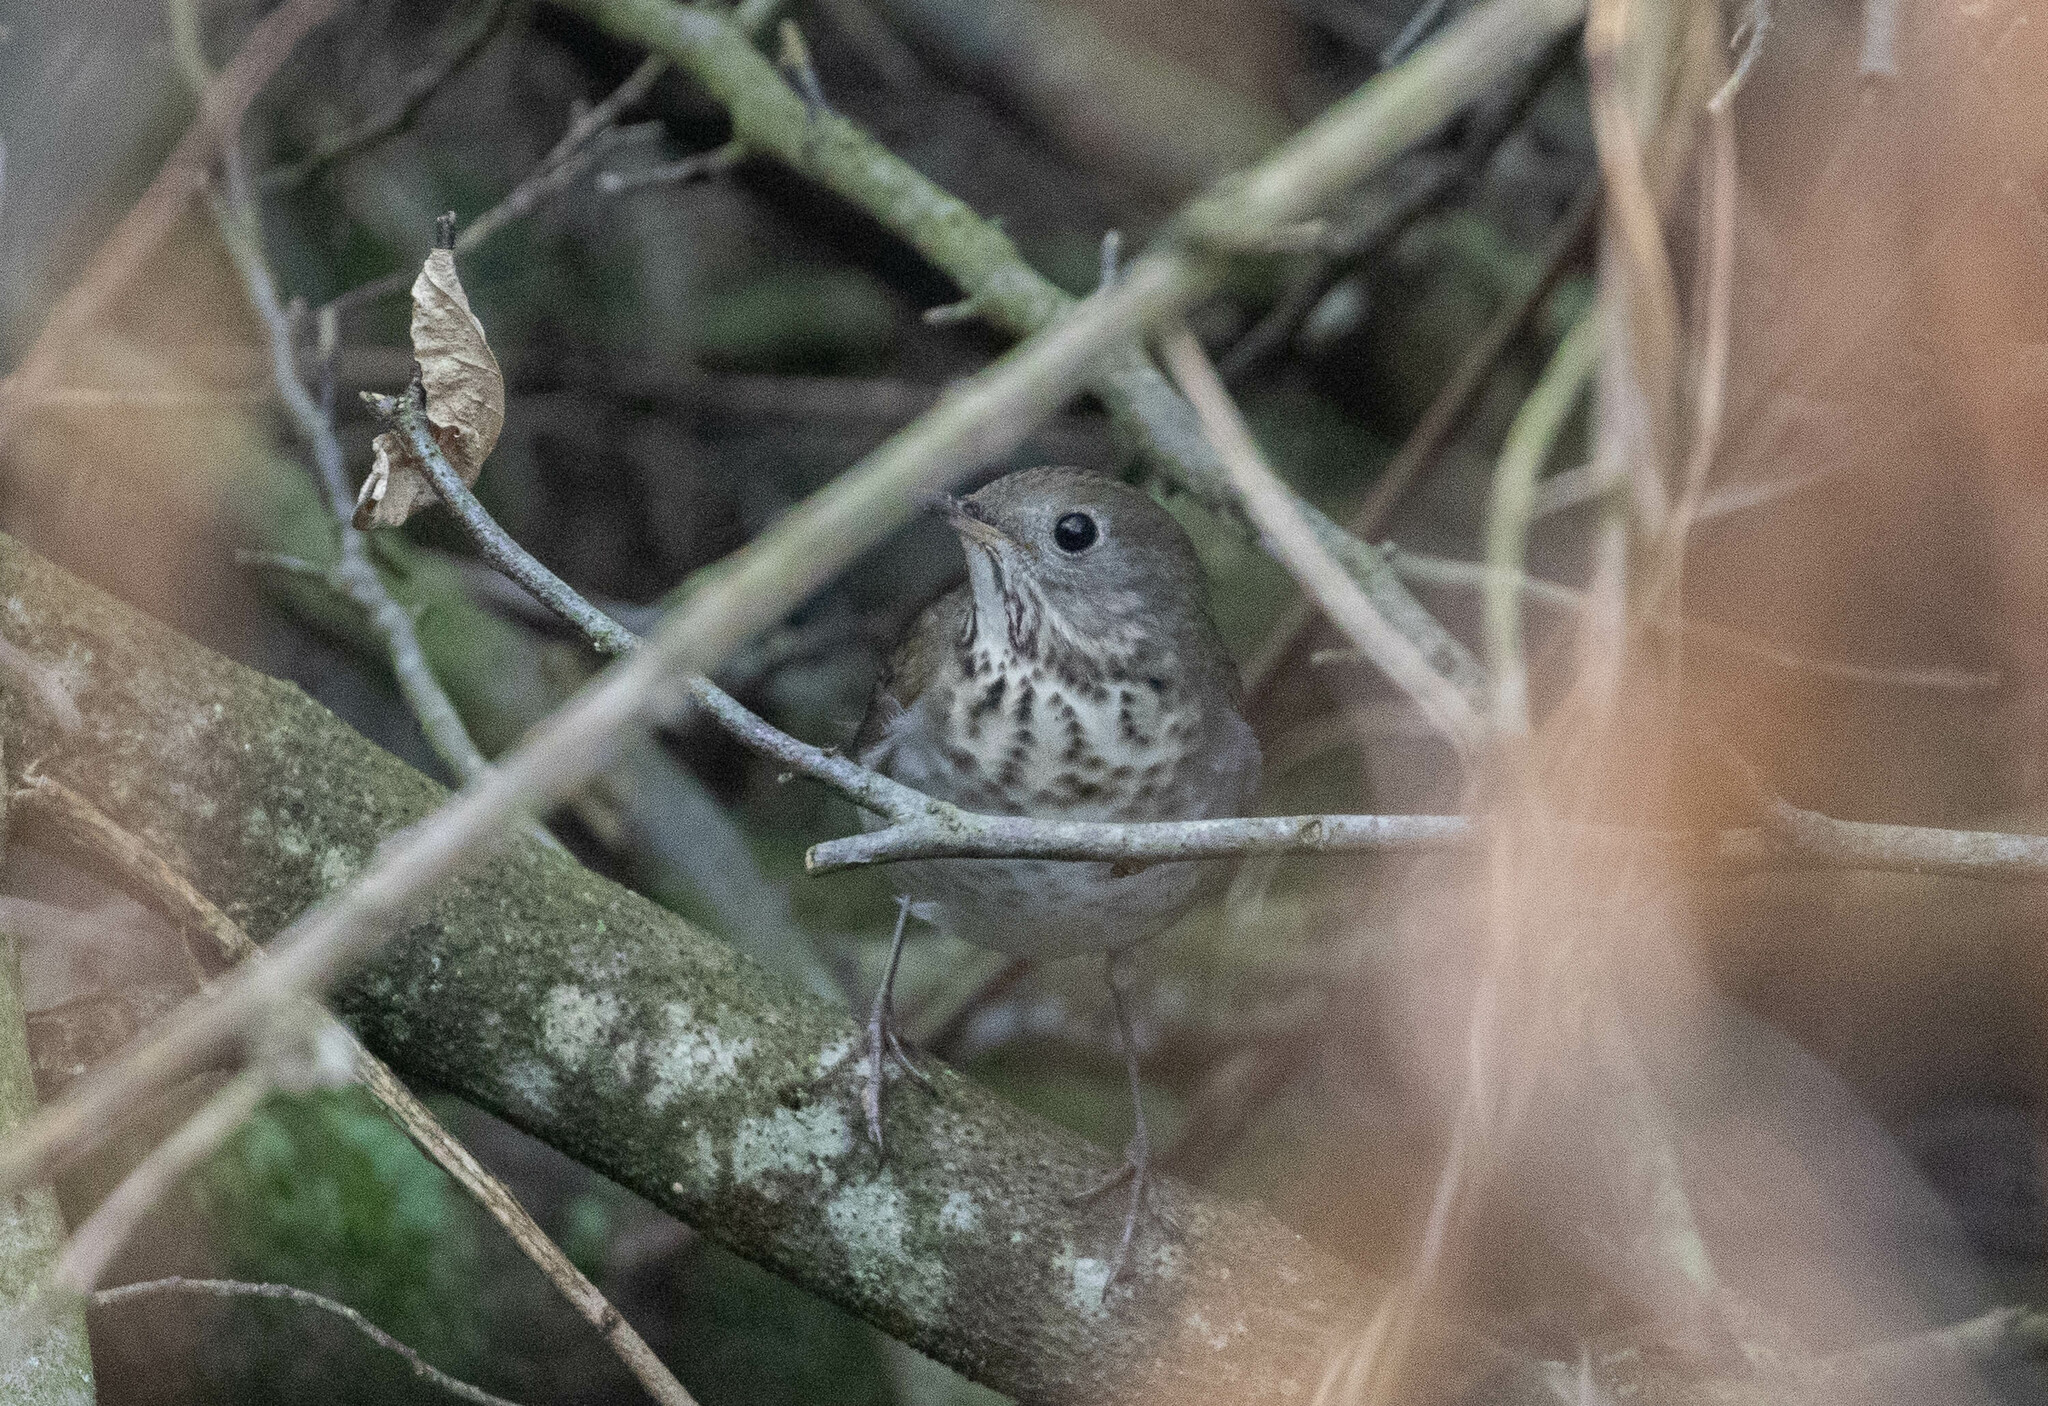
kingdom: Animalia
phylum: Chordata
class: Aves
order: Passeriformes
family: Turdidae
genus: Catharus
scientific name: Catharus minimus
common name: Grey-cheeked thrush
